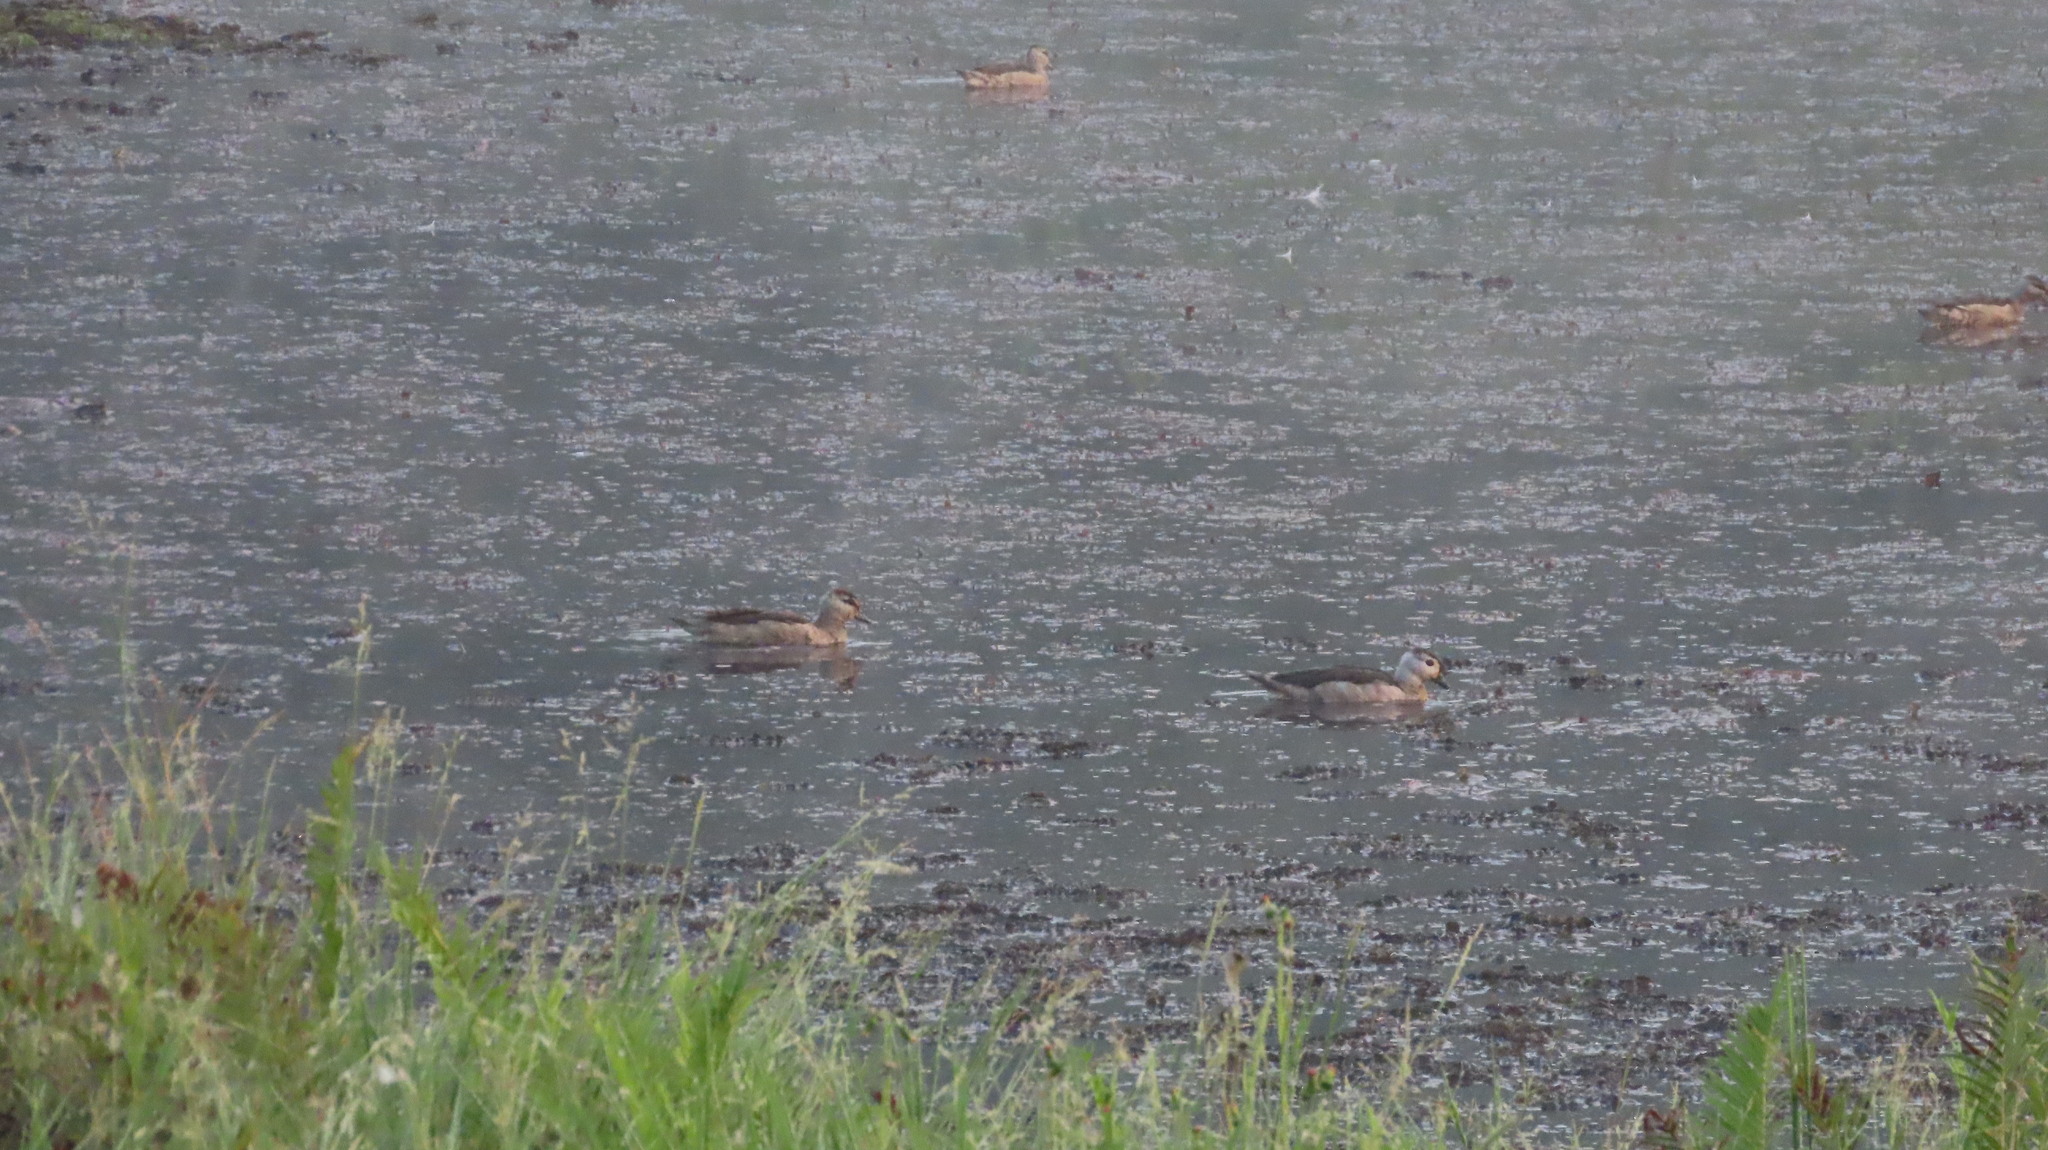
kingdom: Animalia
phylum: Chordata
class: Aves
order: Anseriformes
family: Anatidae
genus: Nettapus
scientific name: Nettapus coromandelianus
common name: Cotton pygmy-goose
